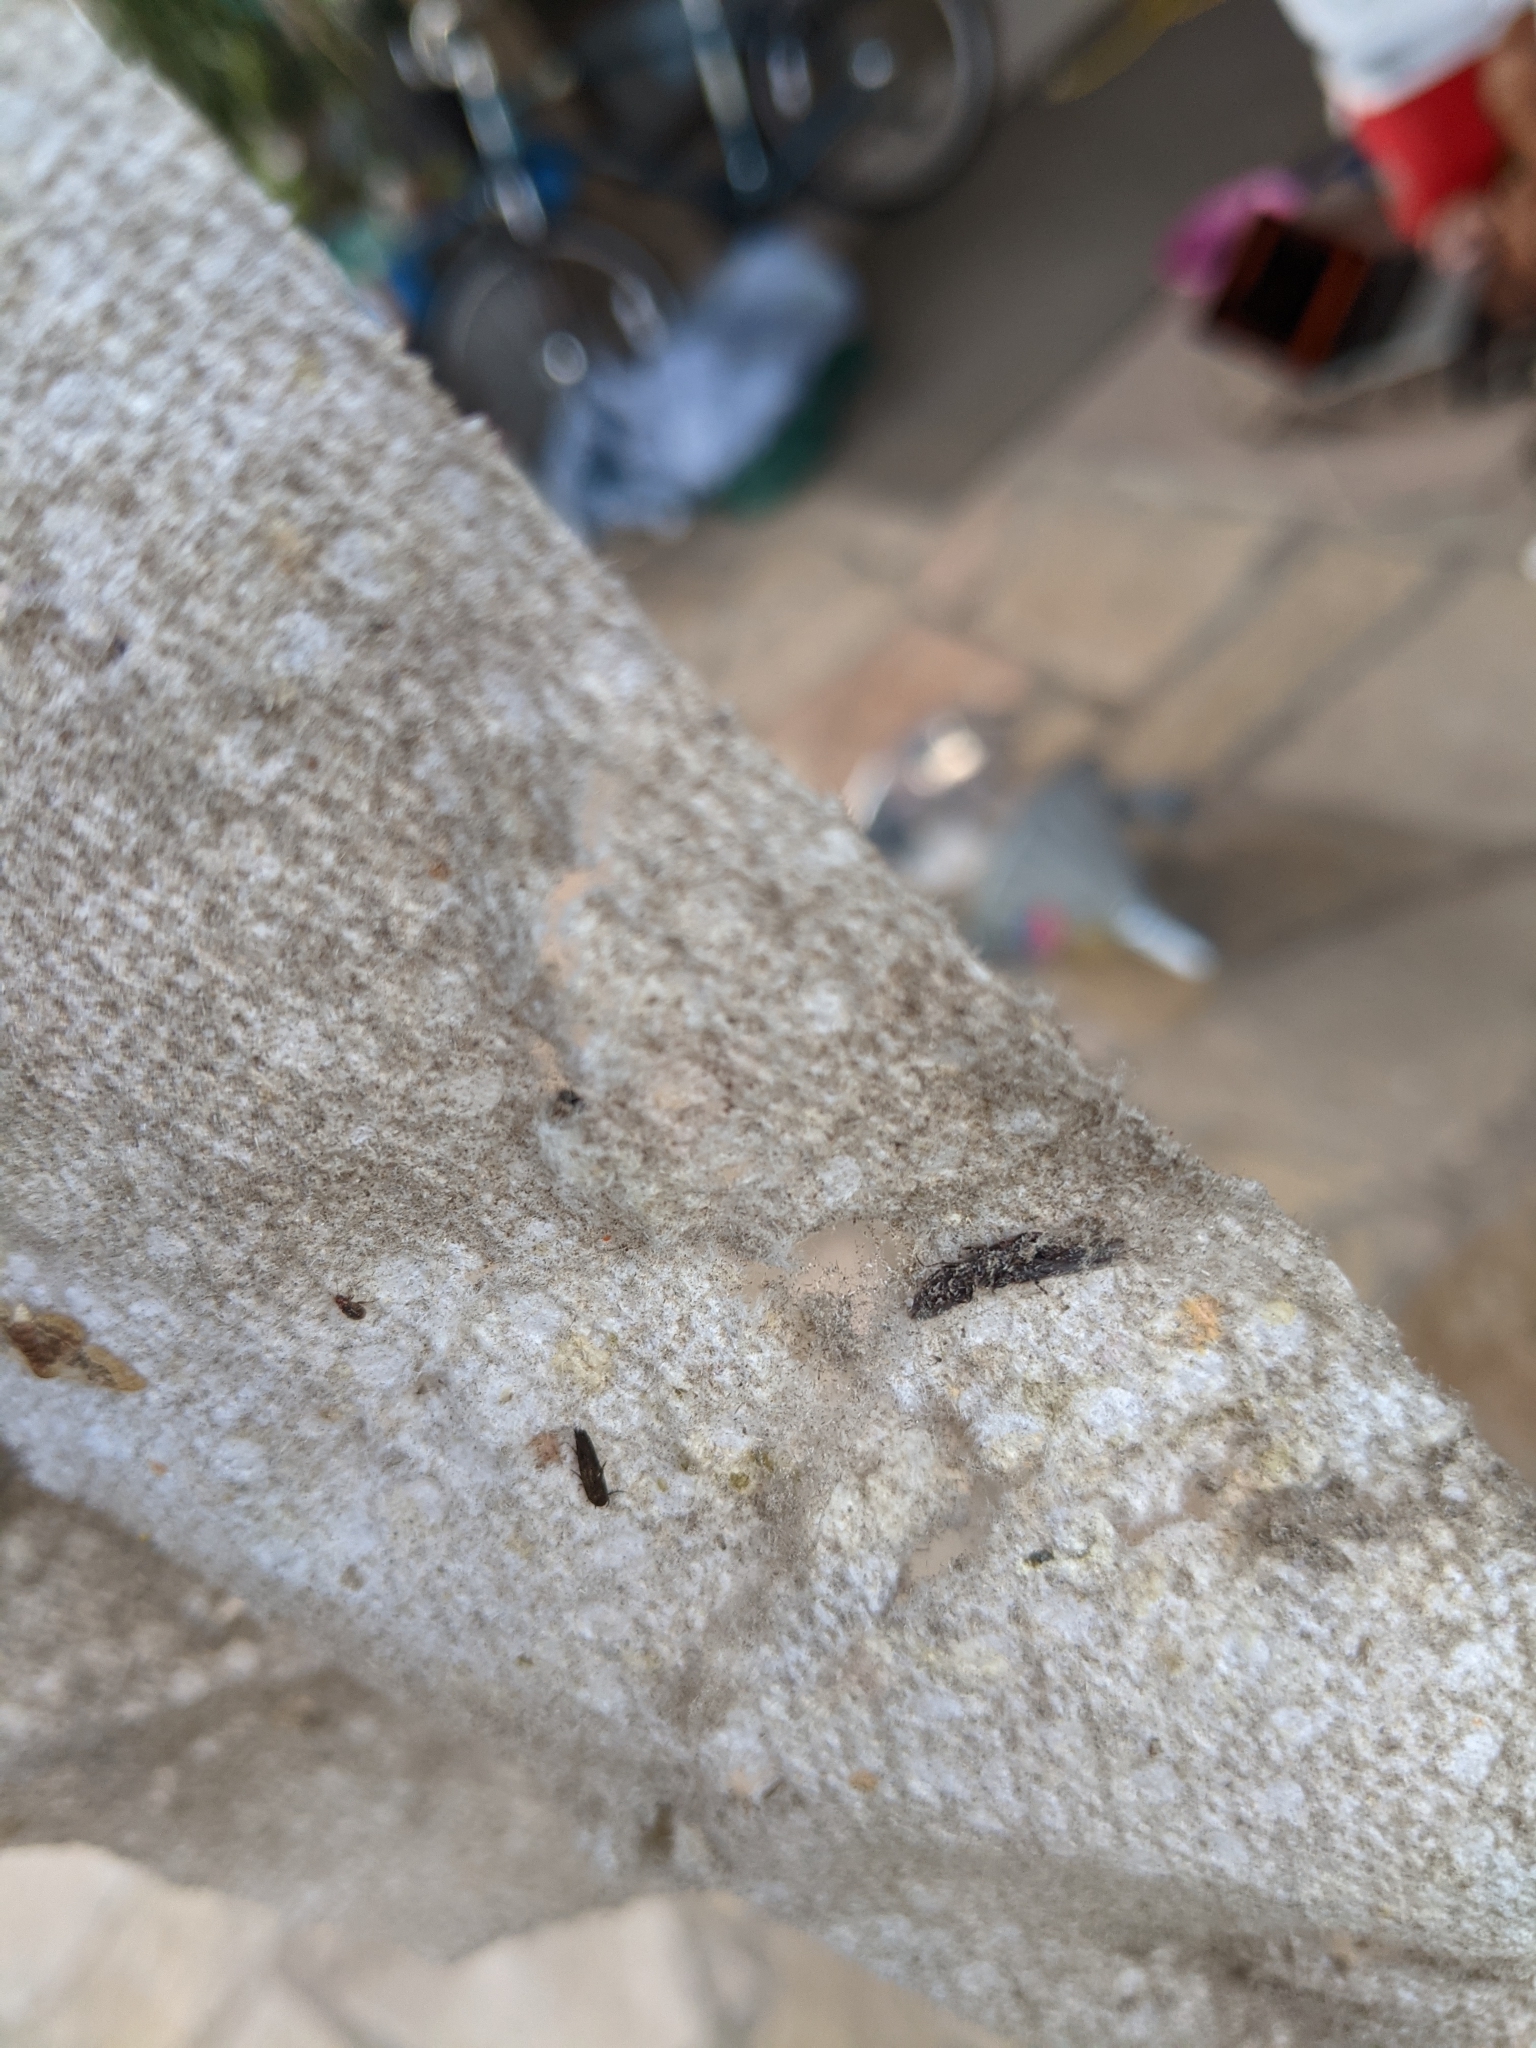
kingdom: Animalia
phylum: Arthropoda
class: Insecta
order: Embioptera
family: Oligotomidae
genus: Oligotoma
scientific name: Oligotoma nigra
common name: Black webspinner
